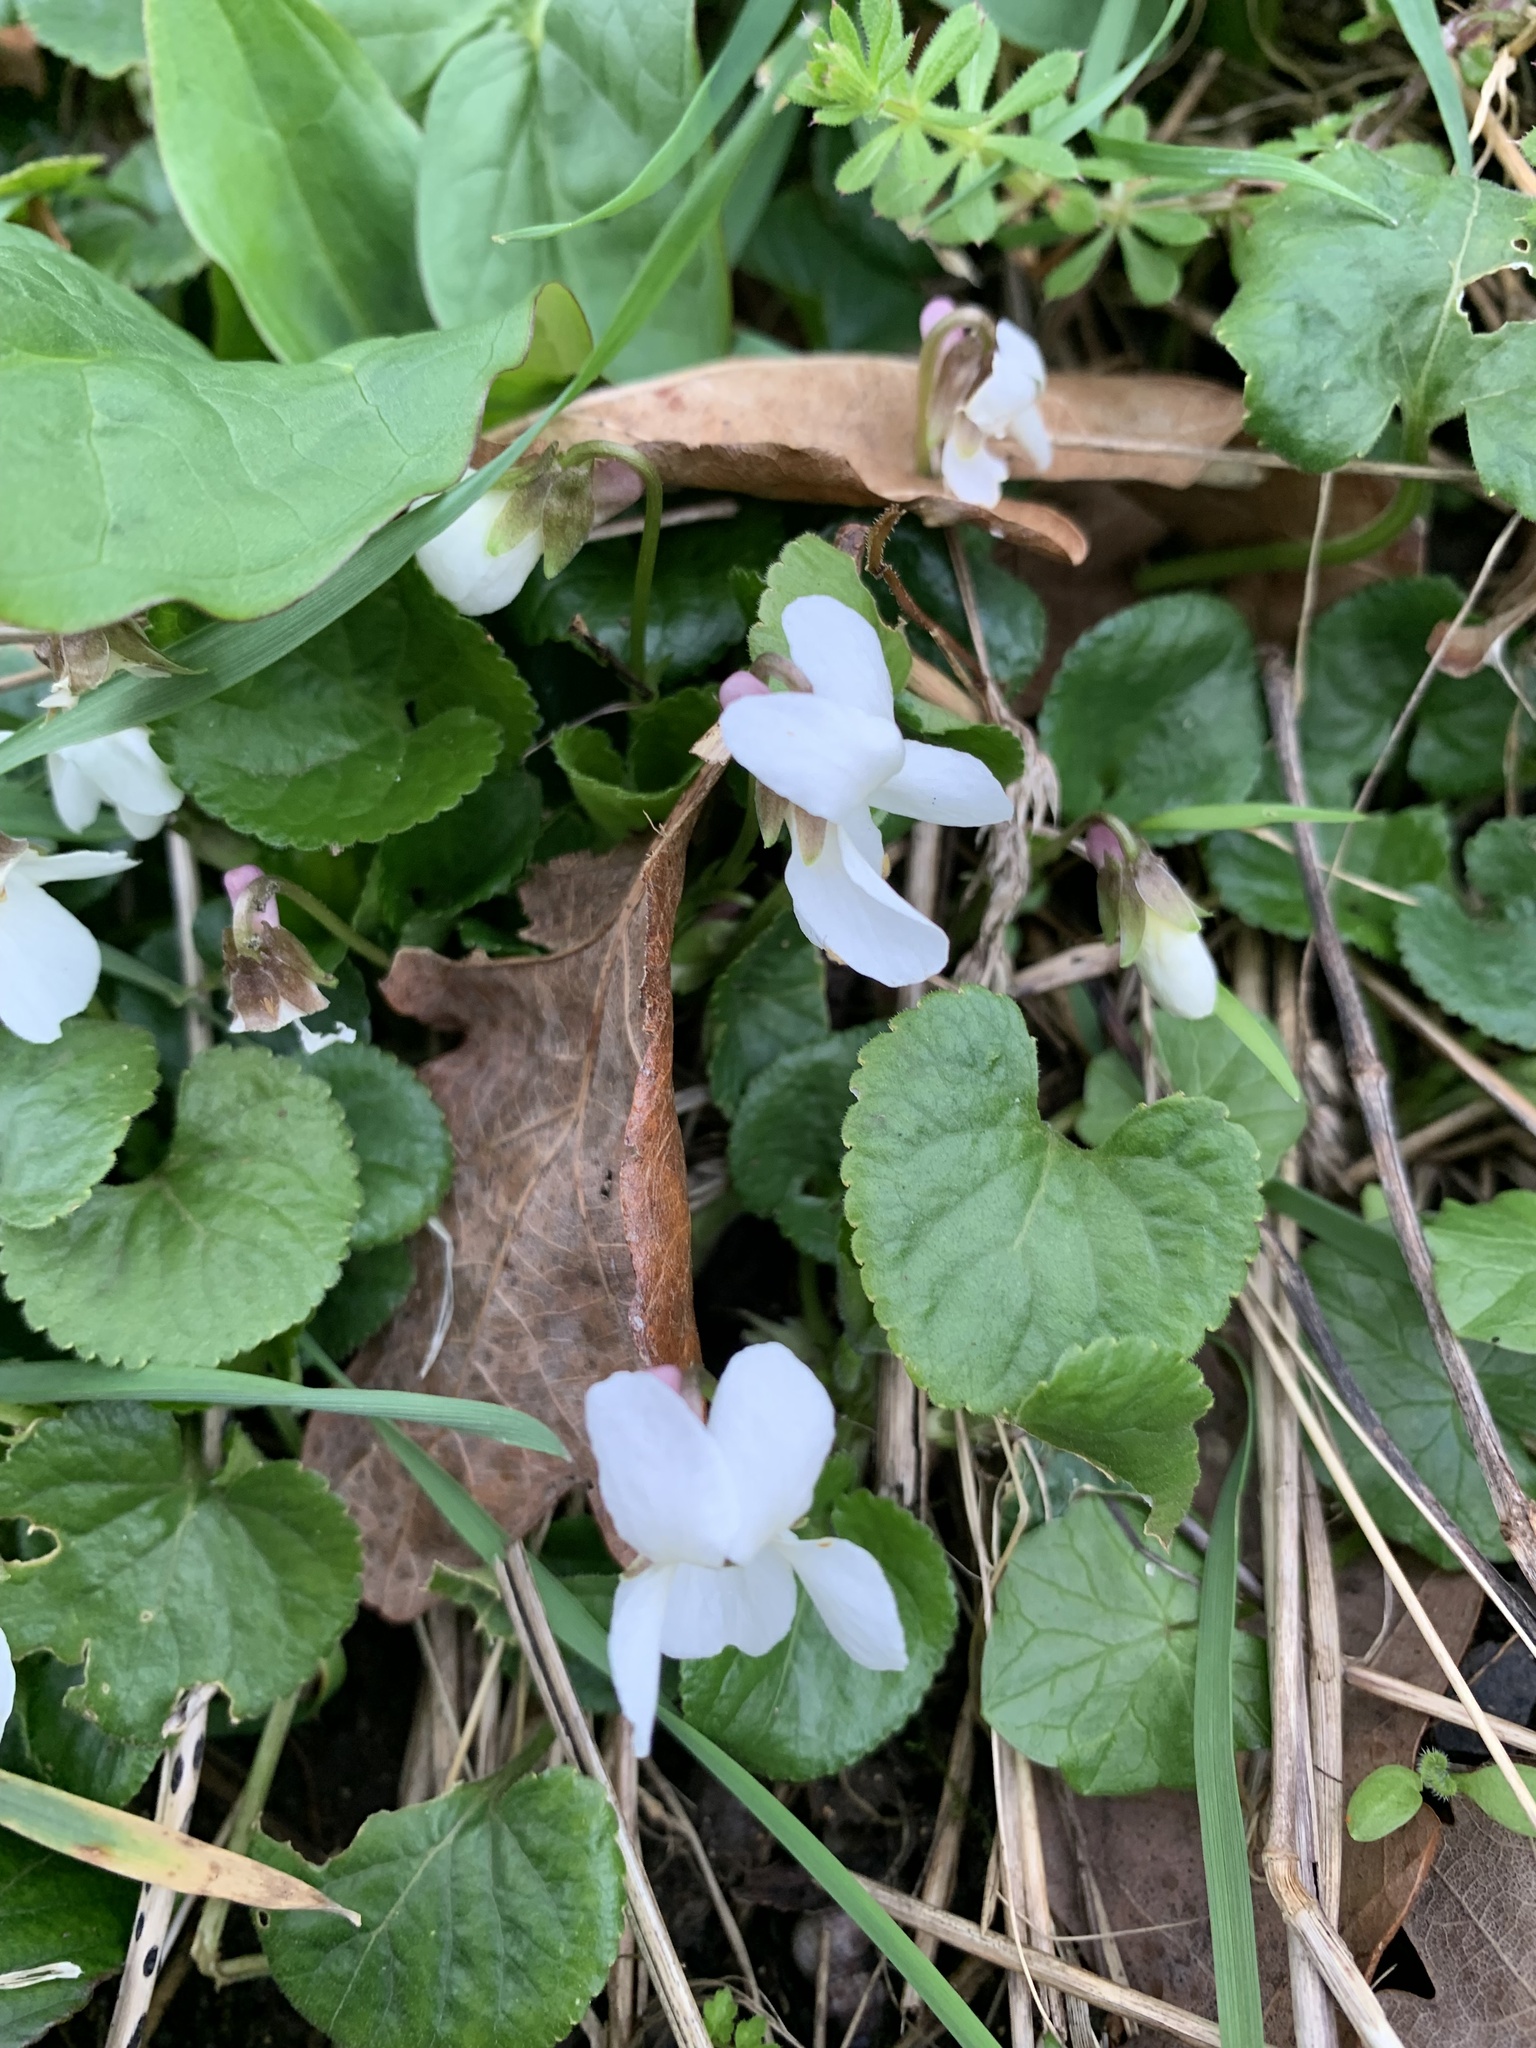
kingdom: Plantae
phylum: Tracheophyta
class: Magnoliopsida
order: Malpighiales
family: Violaceae
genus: Viola
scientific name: Viola odorata
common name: Sweet violet
